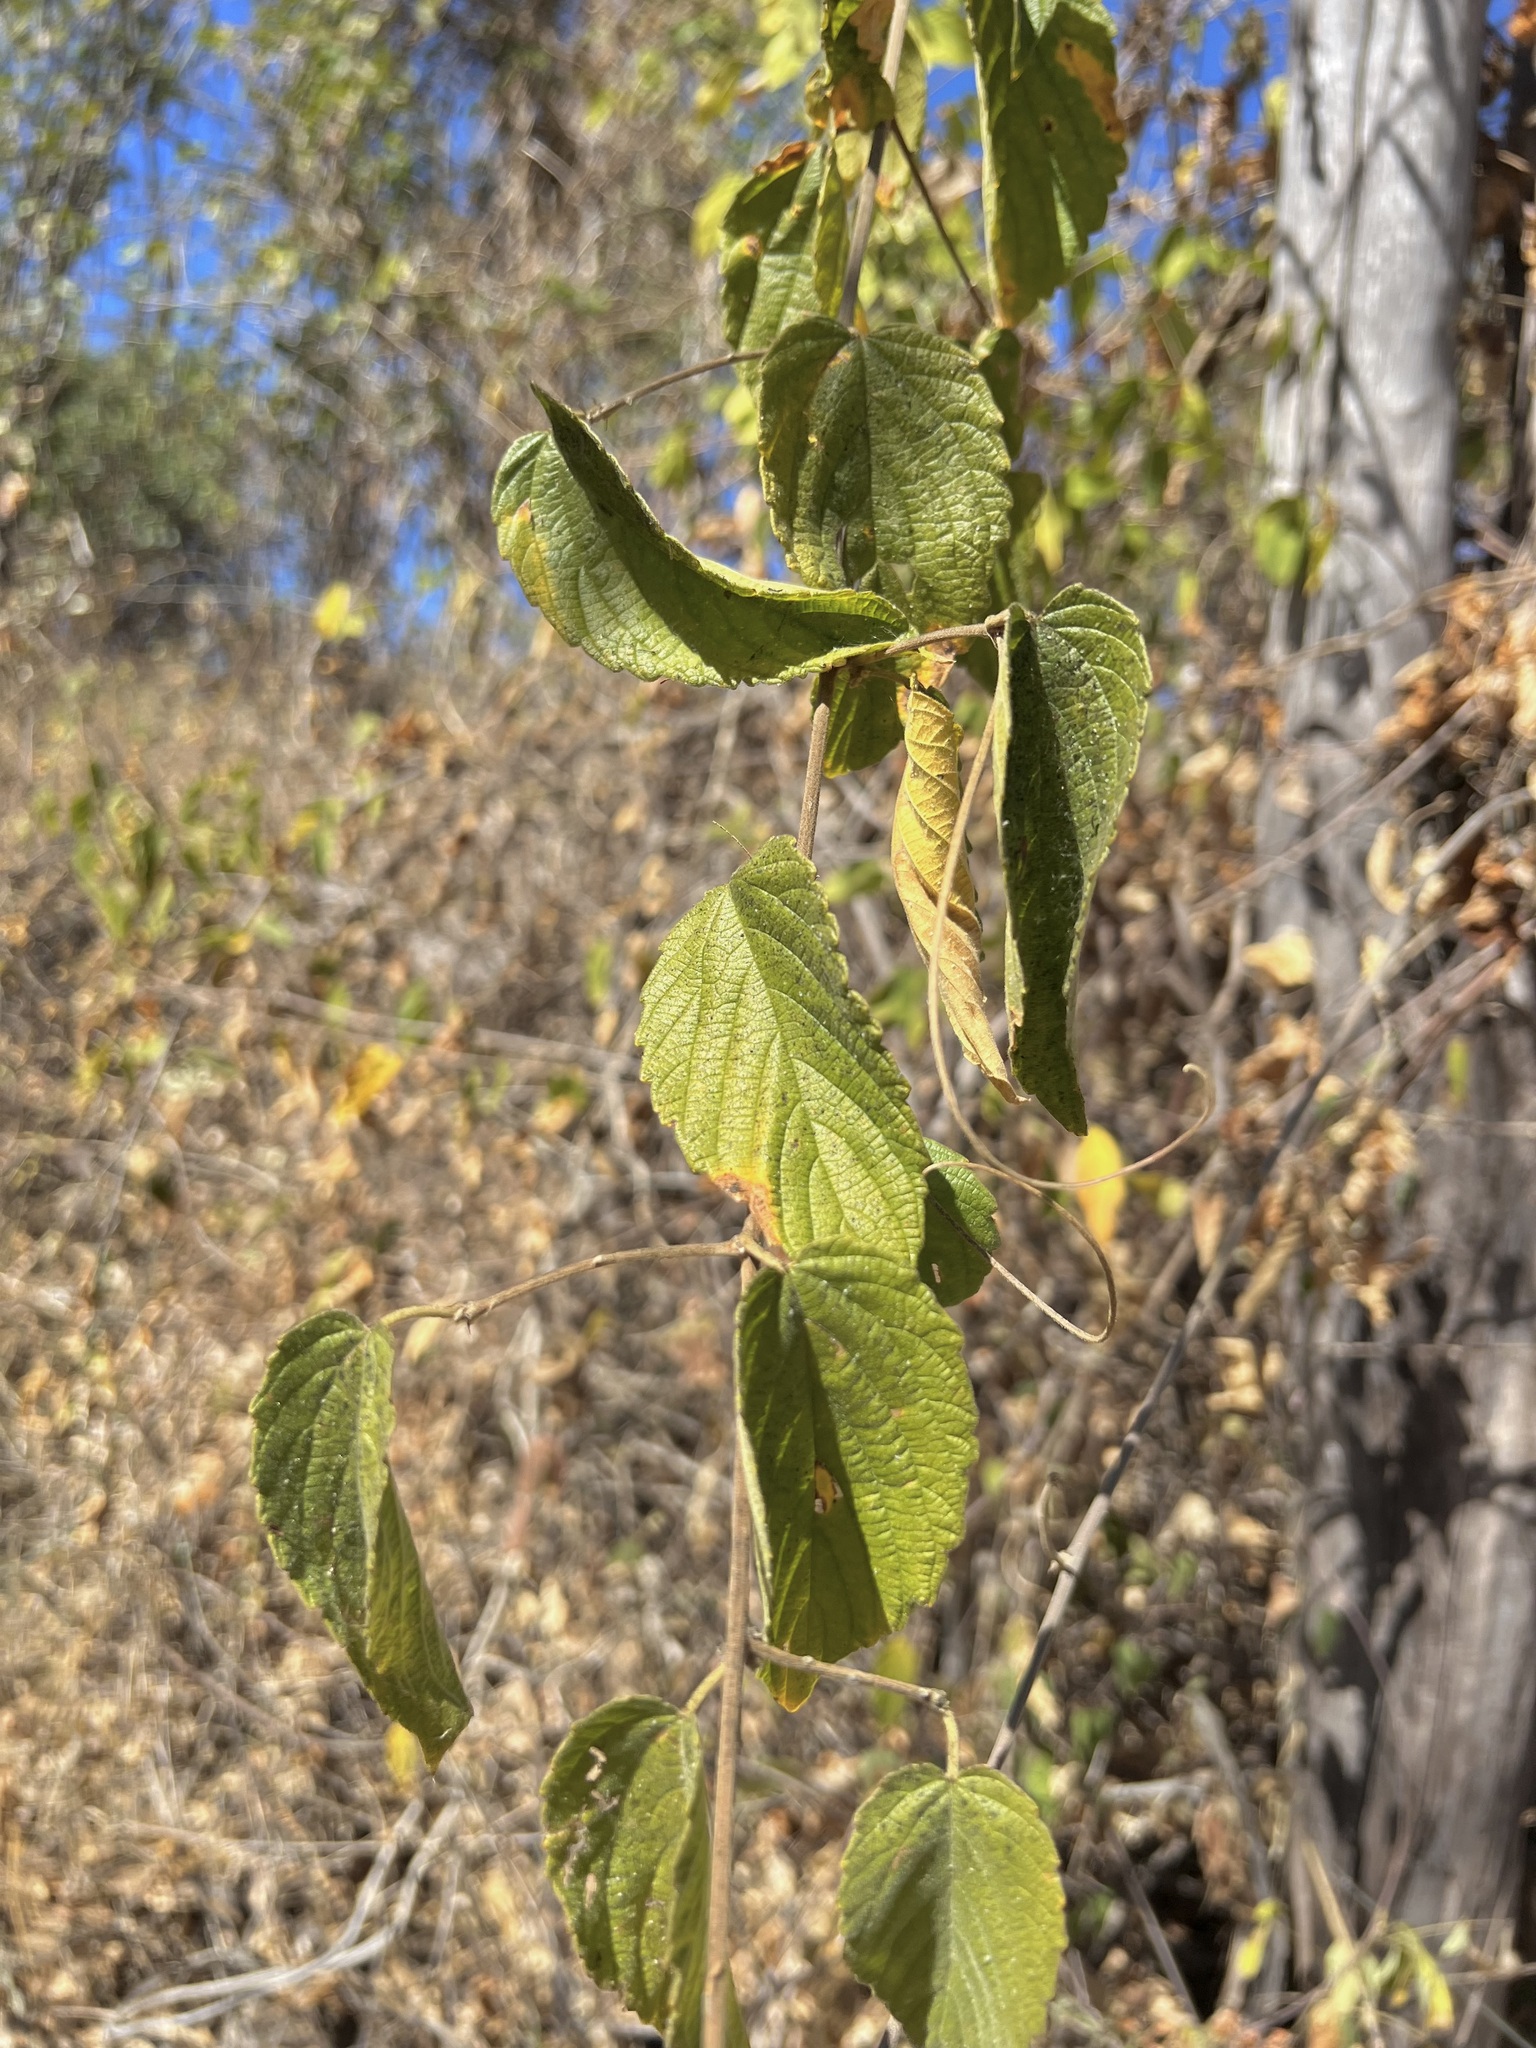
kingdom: Plantae
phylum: Tracheophyta
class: Magnoliopsida
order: Rosales
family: Rhamnaceae
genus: Gouania
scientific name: Gouania rosei
